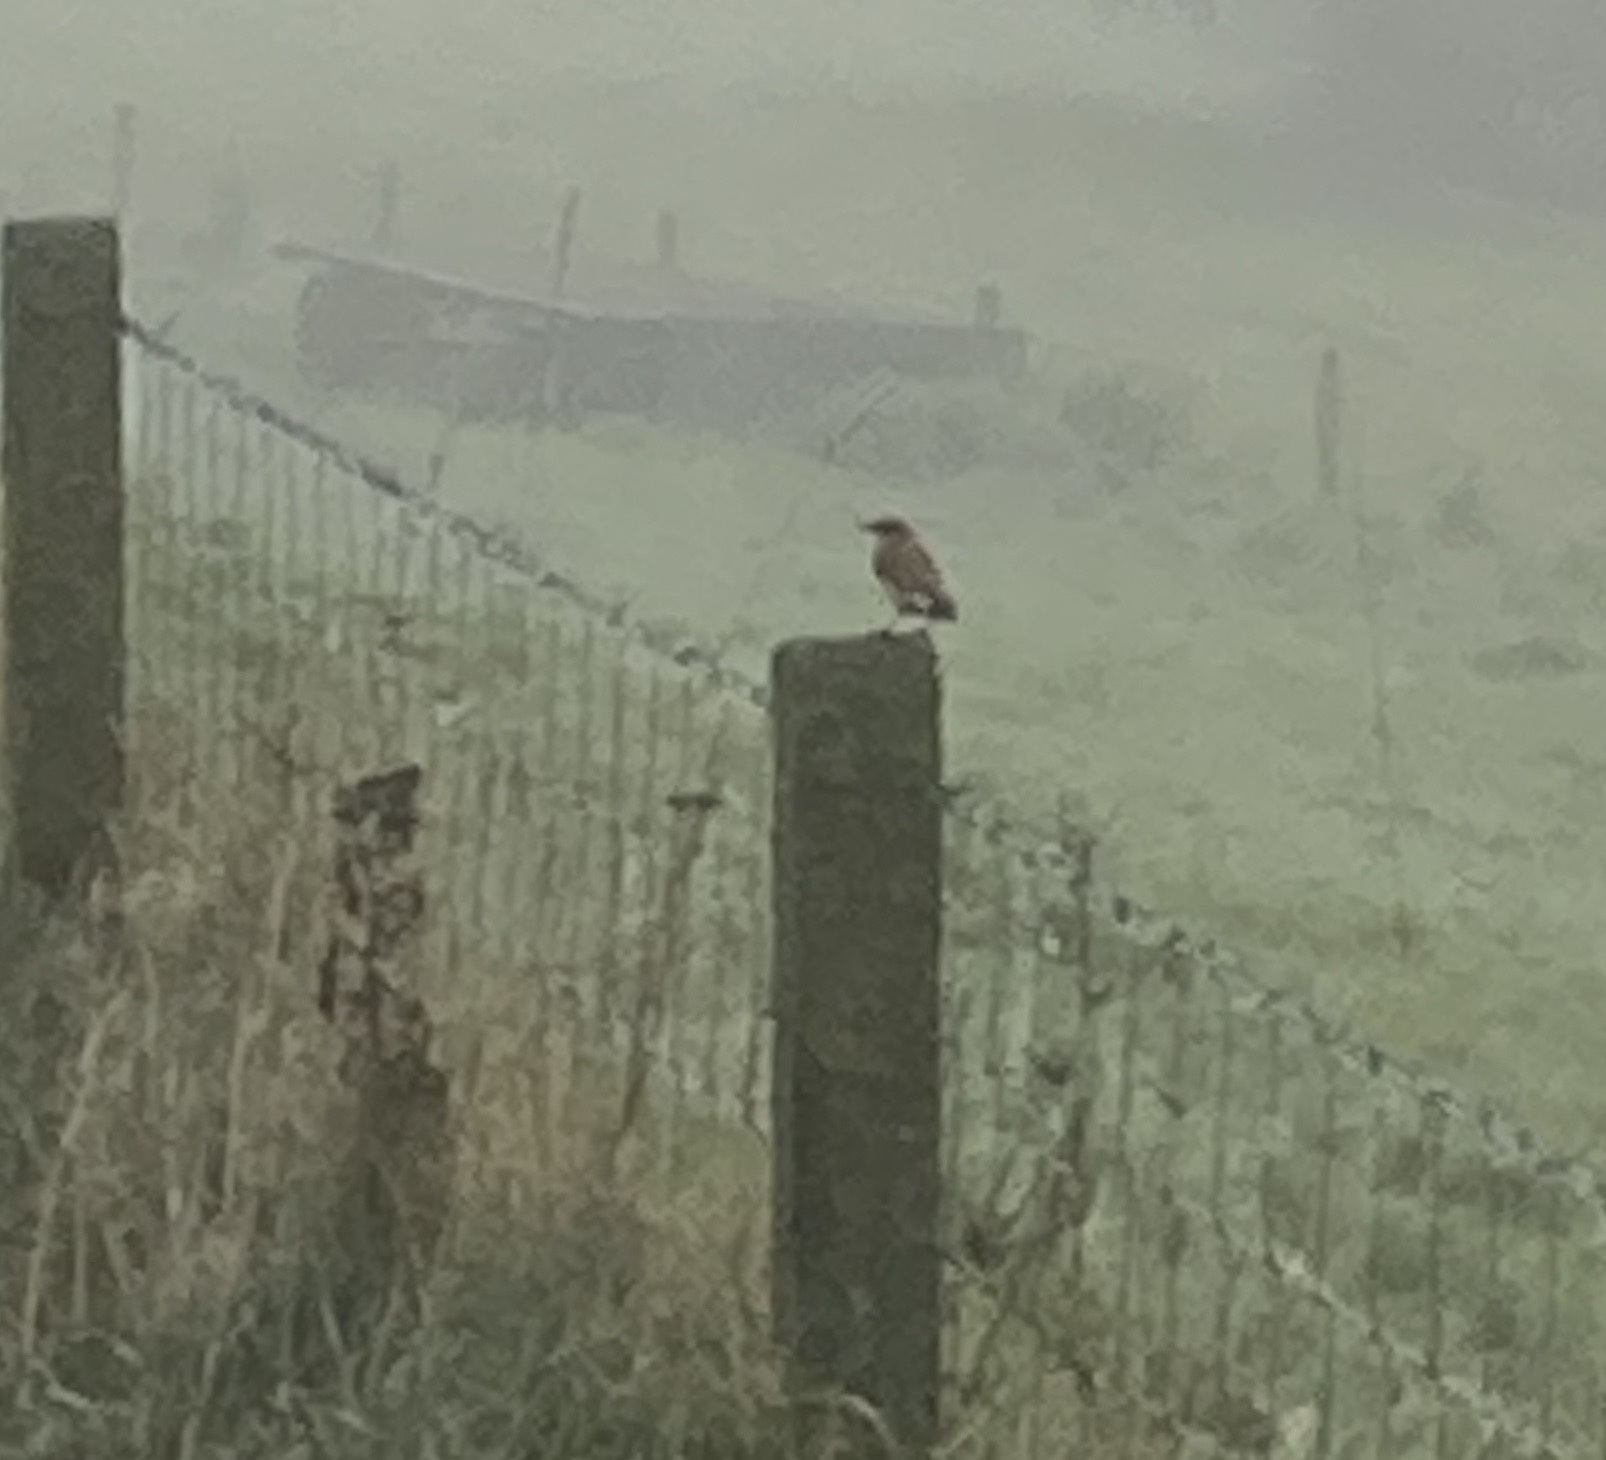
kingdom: Animalia
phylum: Chordata
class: Aves
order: Passeriformes
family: Muscicapidae
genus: Oenanthe
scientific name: Oenanthe oenanthe
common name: Northern wheatear
